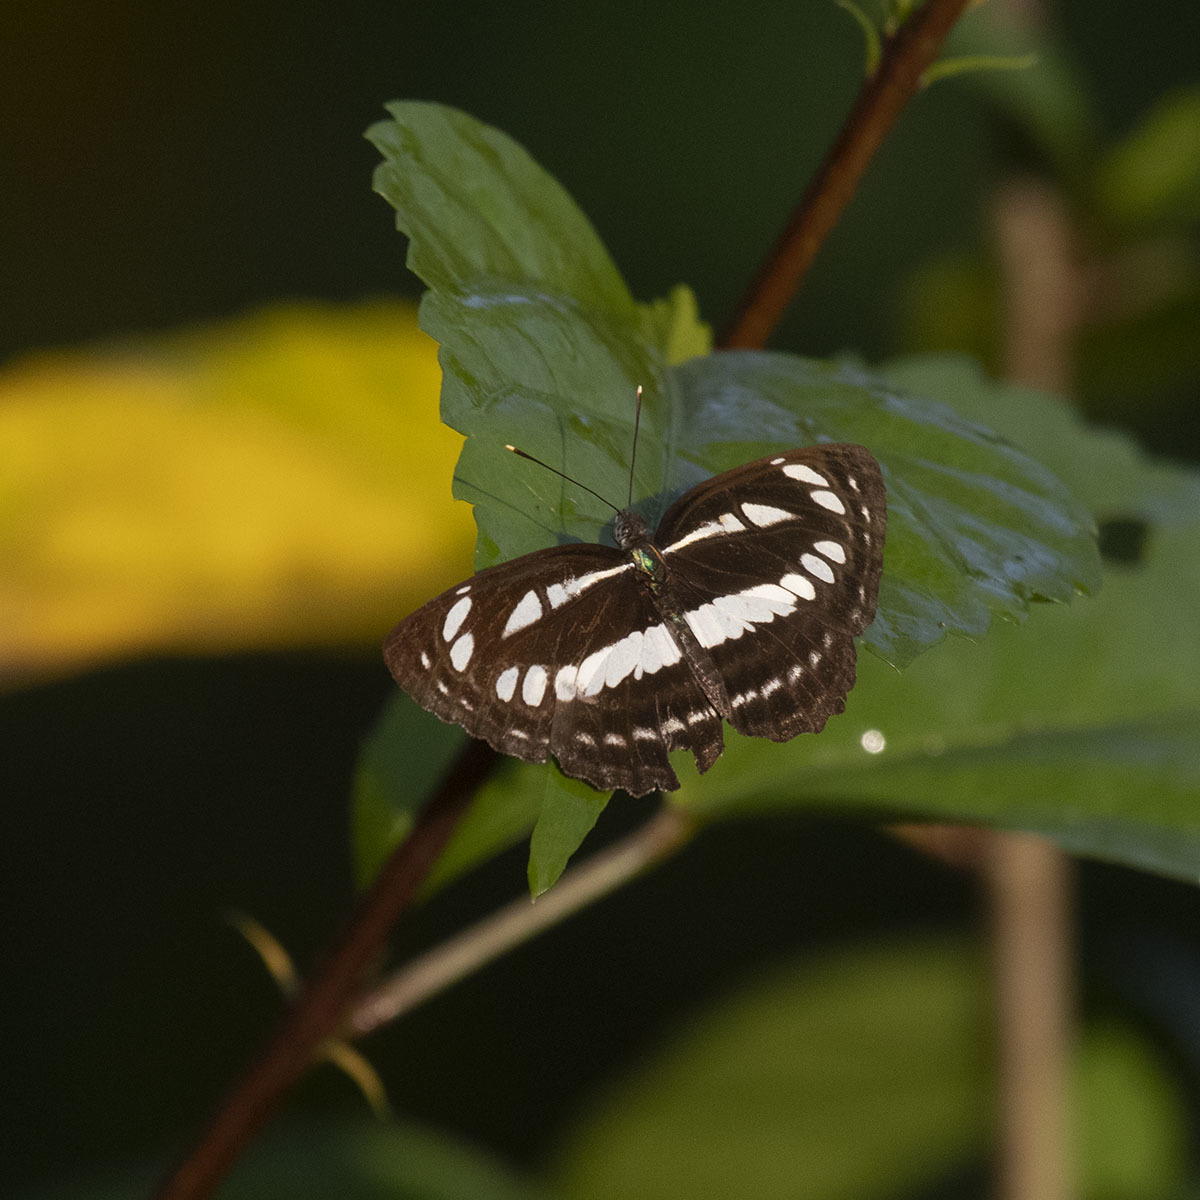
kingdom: Animalia
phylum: Arthropoda
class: Insecta
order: Lepidoptera
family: Nymphalidae
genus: Neptis
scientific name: Neptis hylas
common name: Common sailer
